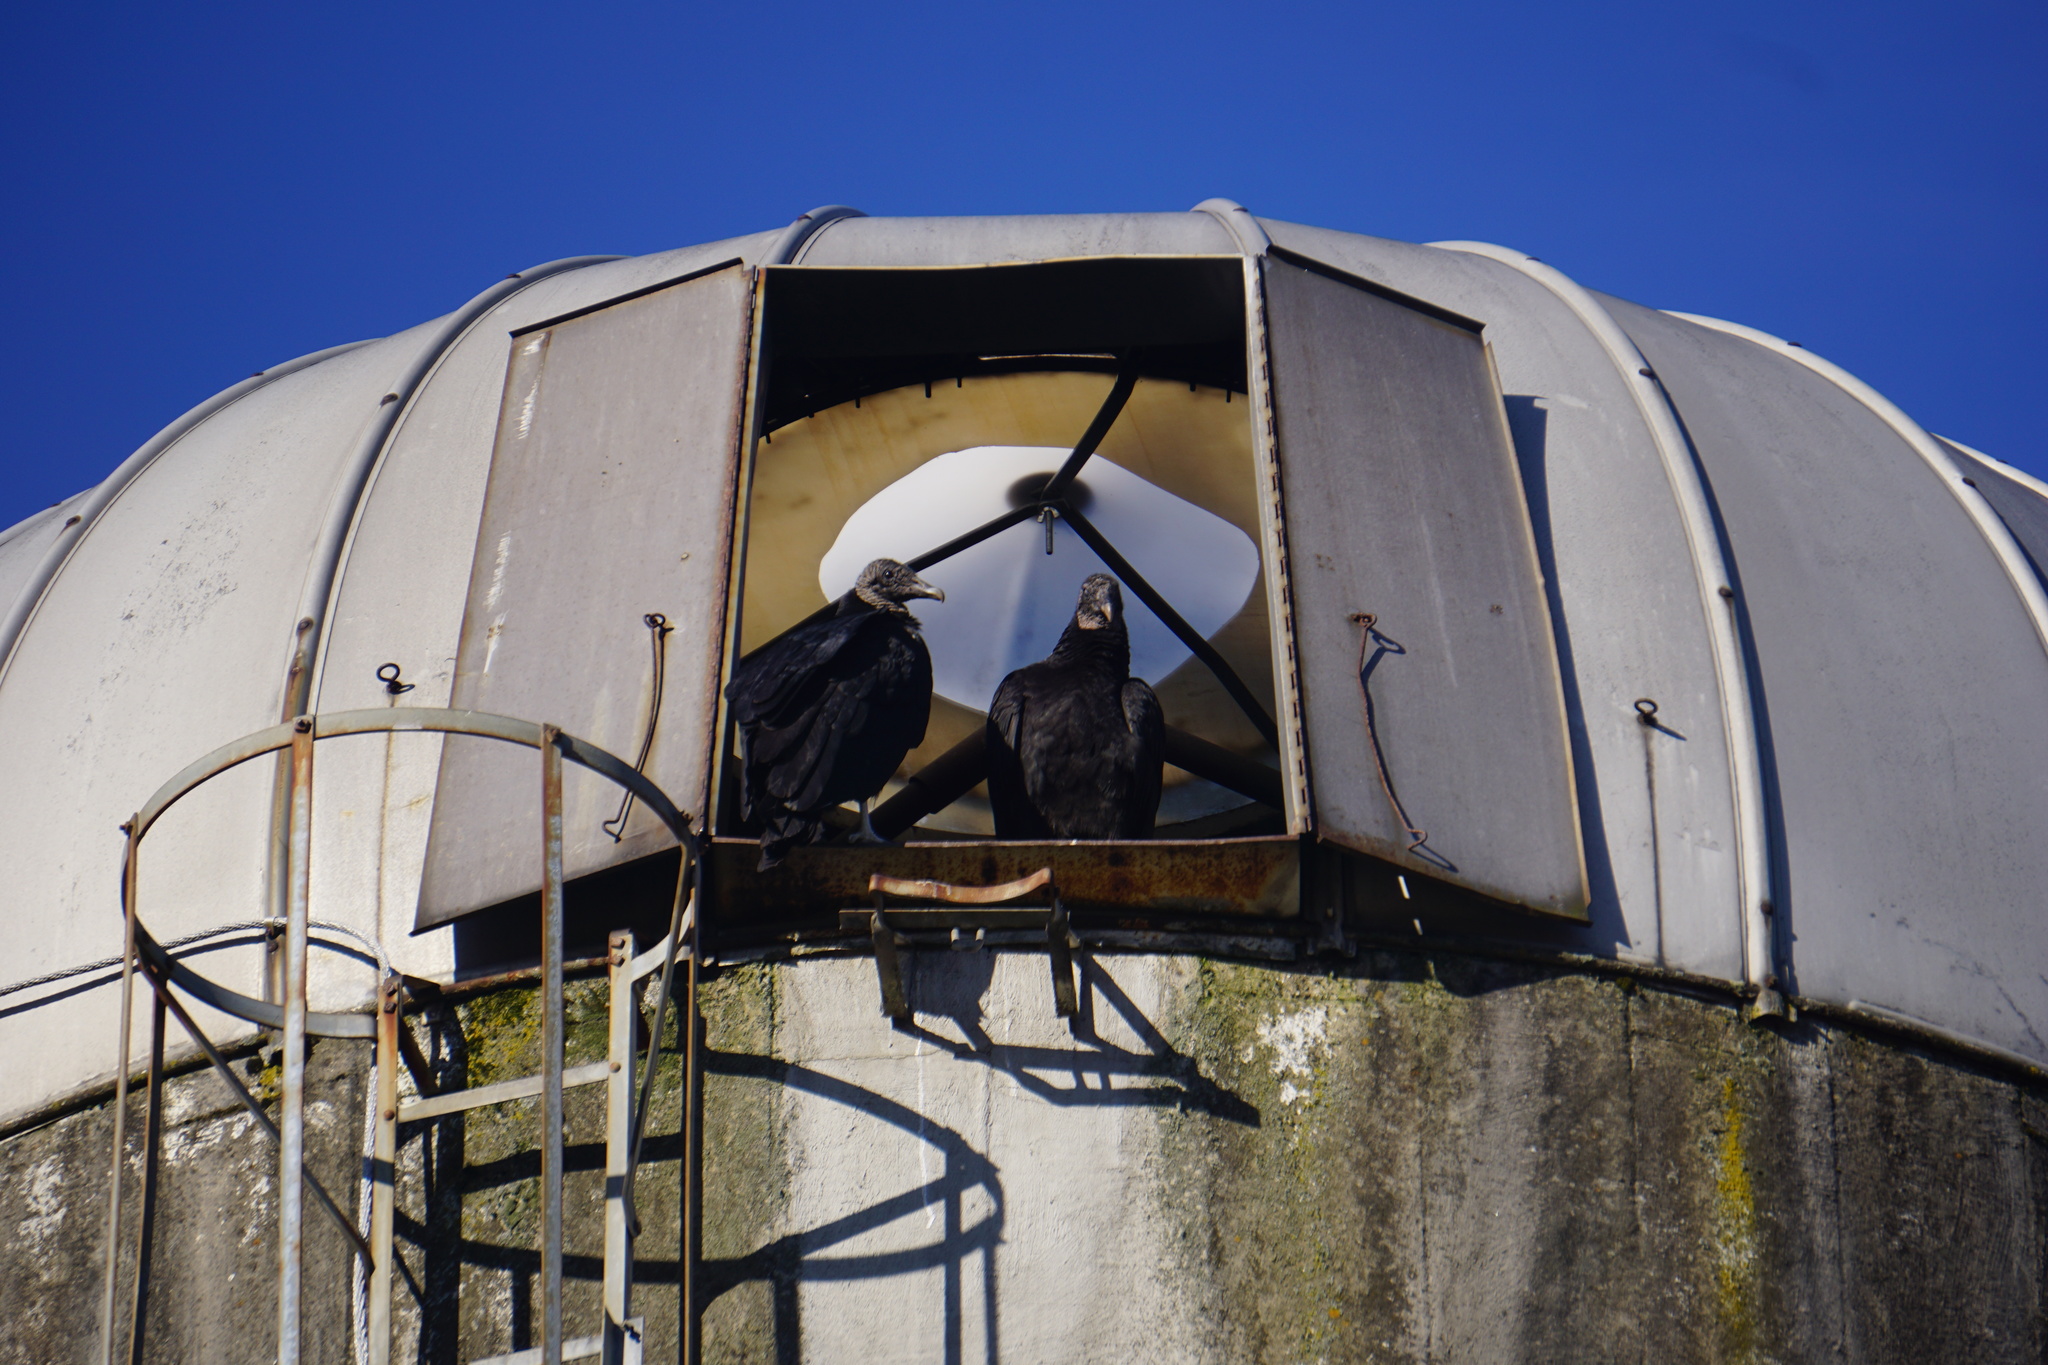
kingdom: Animalia
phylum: Chordata
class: Aves
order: Accipitriformes
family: Cathartidae
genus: Coragyps
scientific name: Coragyps atratus
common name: Black vulture
